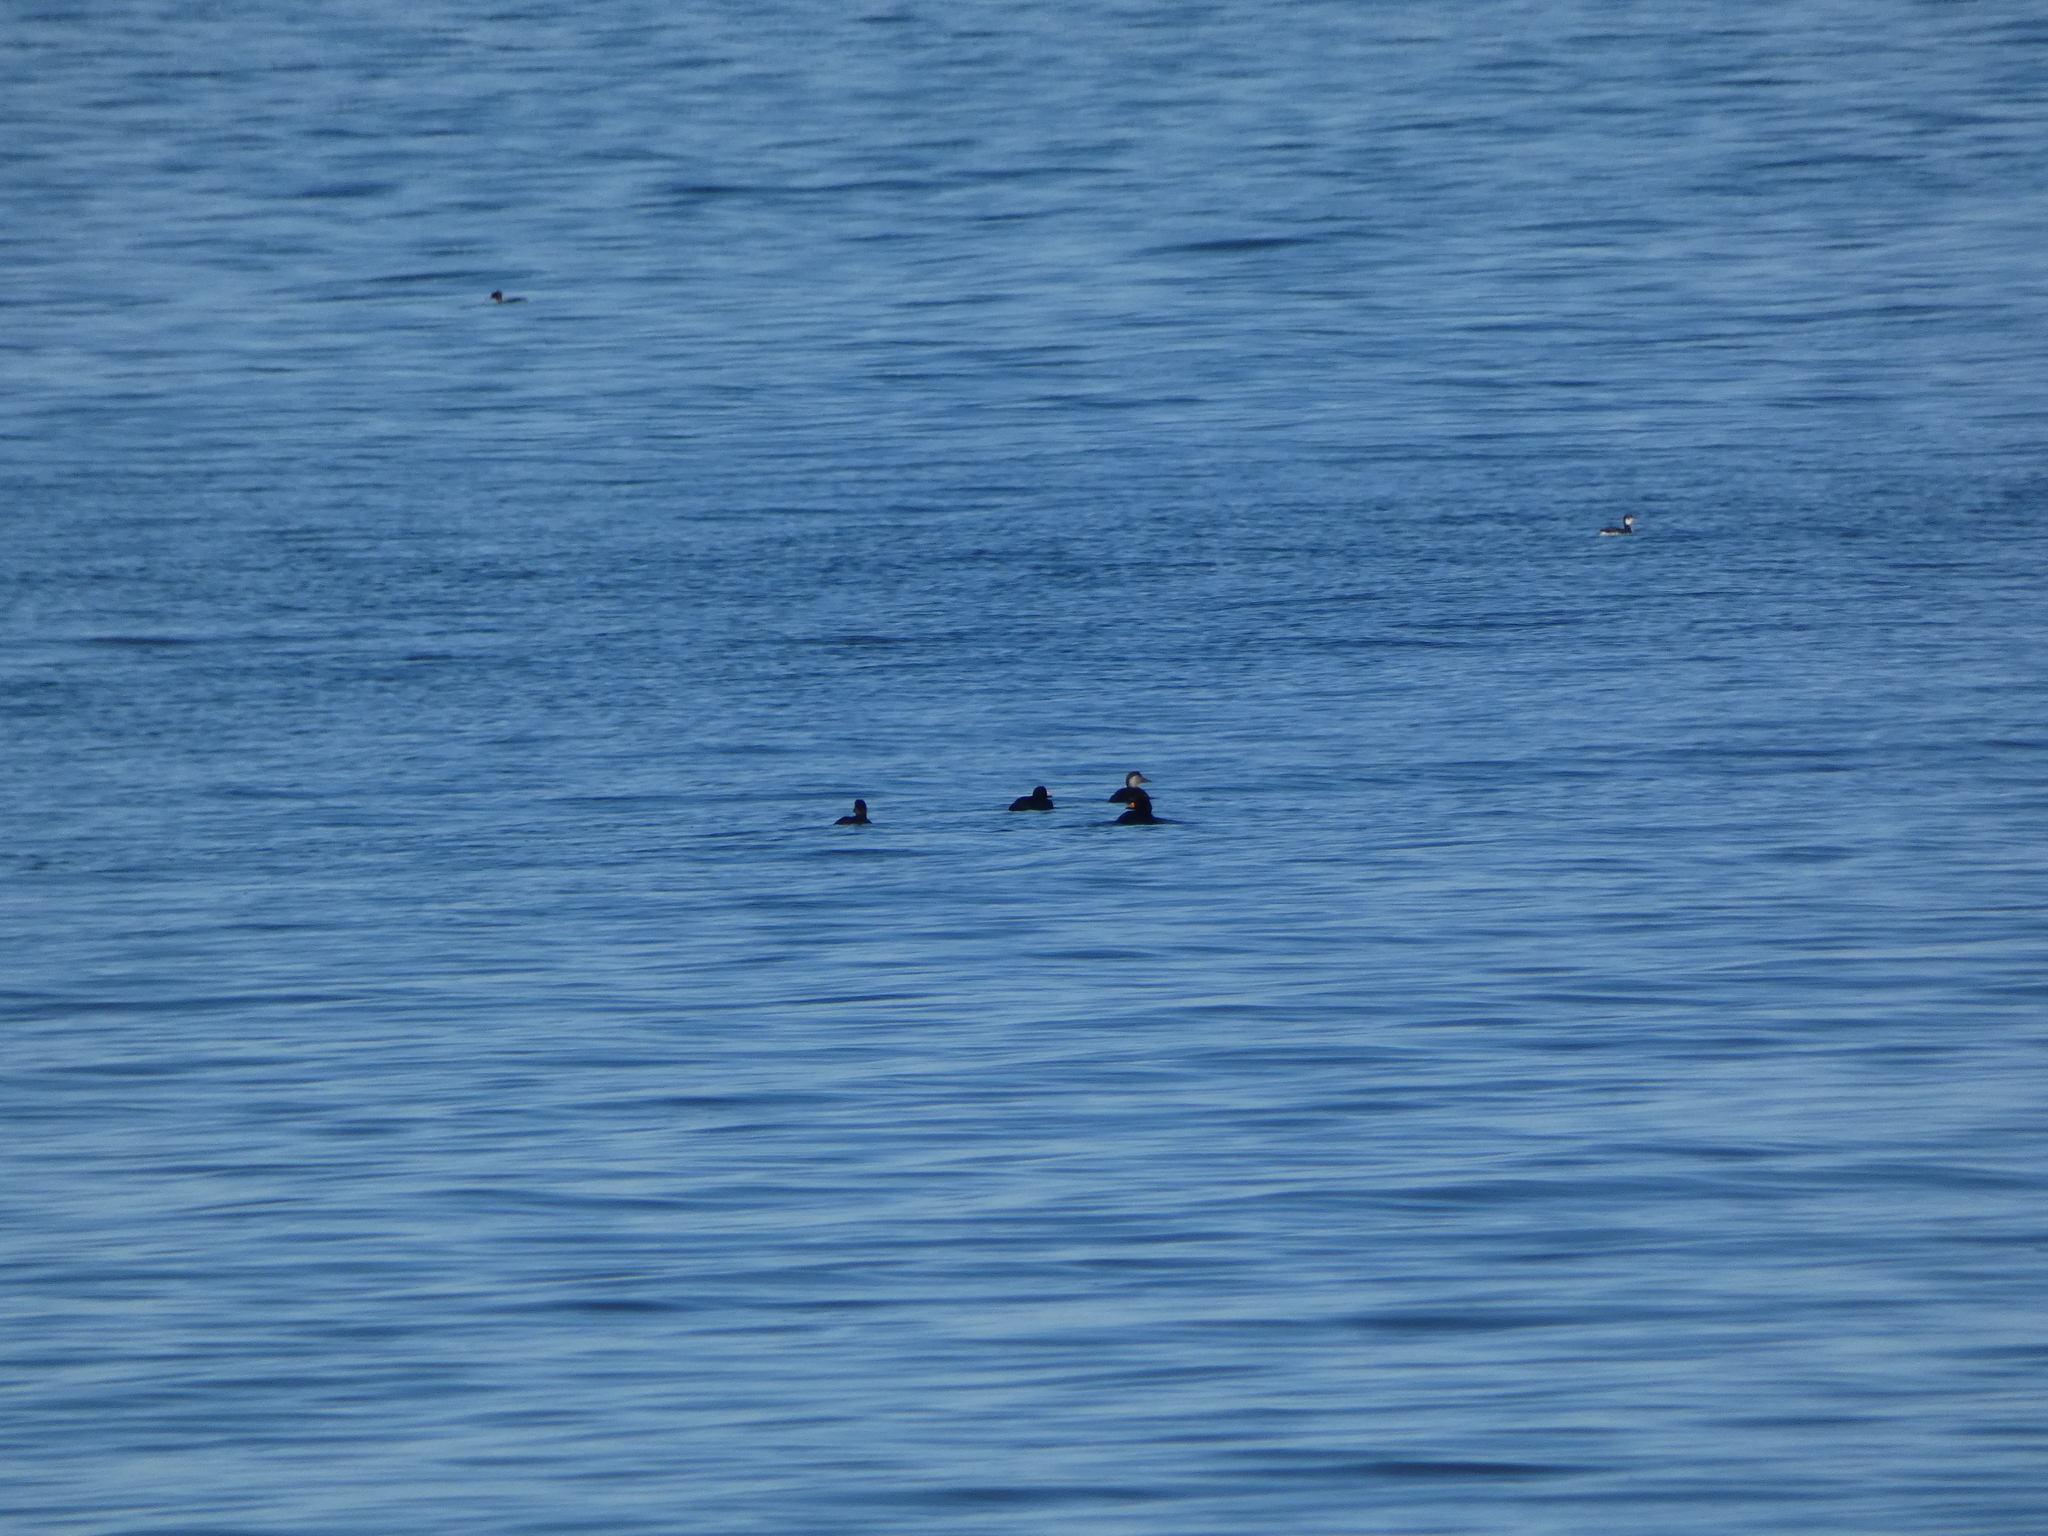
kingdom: Animalia
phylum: Chordata
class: Aves
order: Anseriformes
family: Anatidae
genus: Melanitta
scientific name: Melanitta americana
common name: Black scoter
